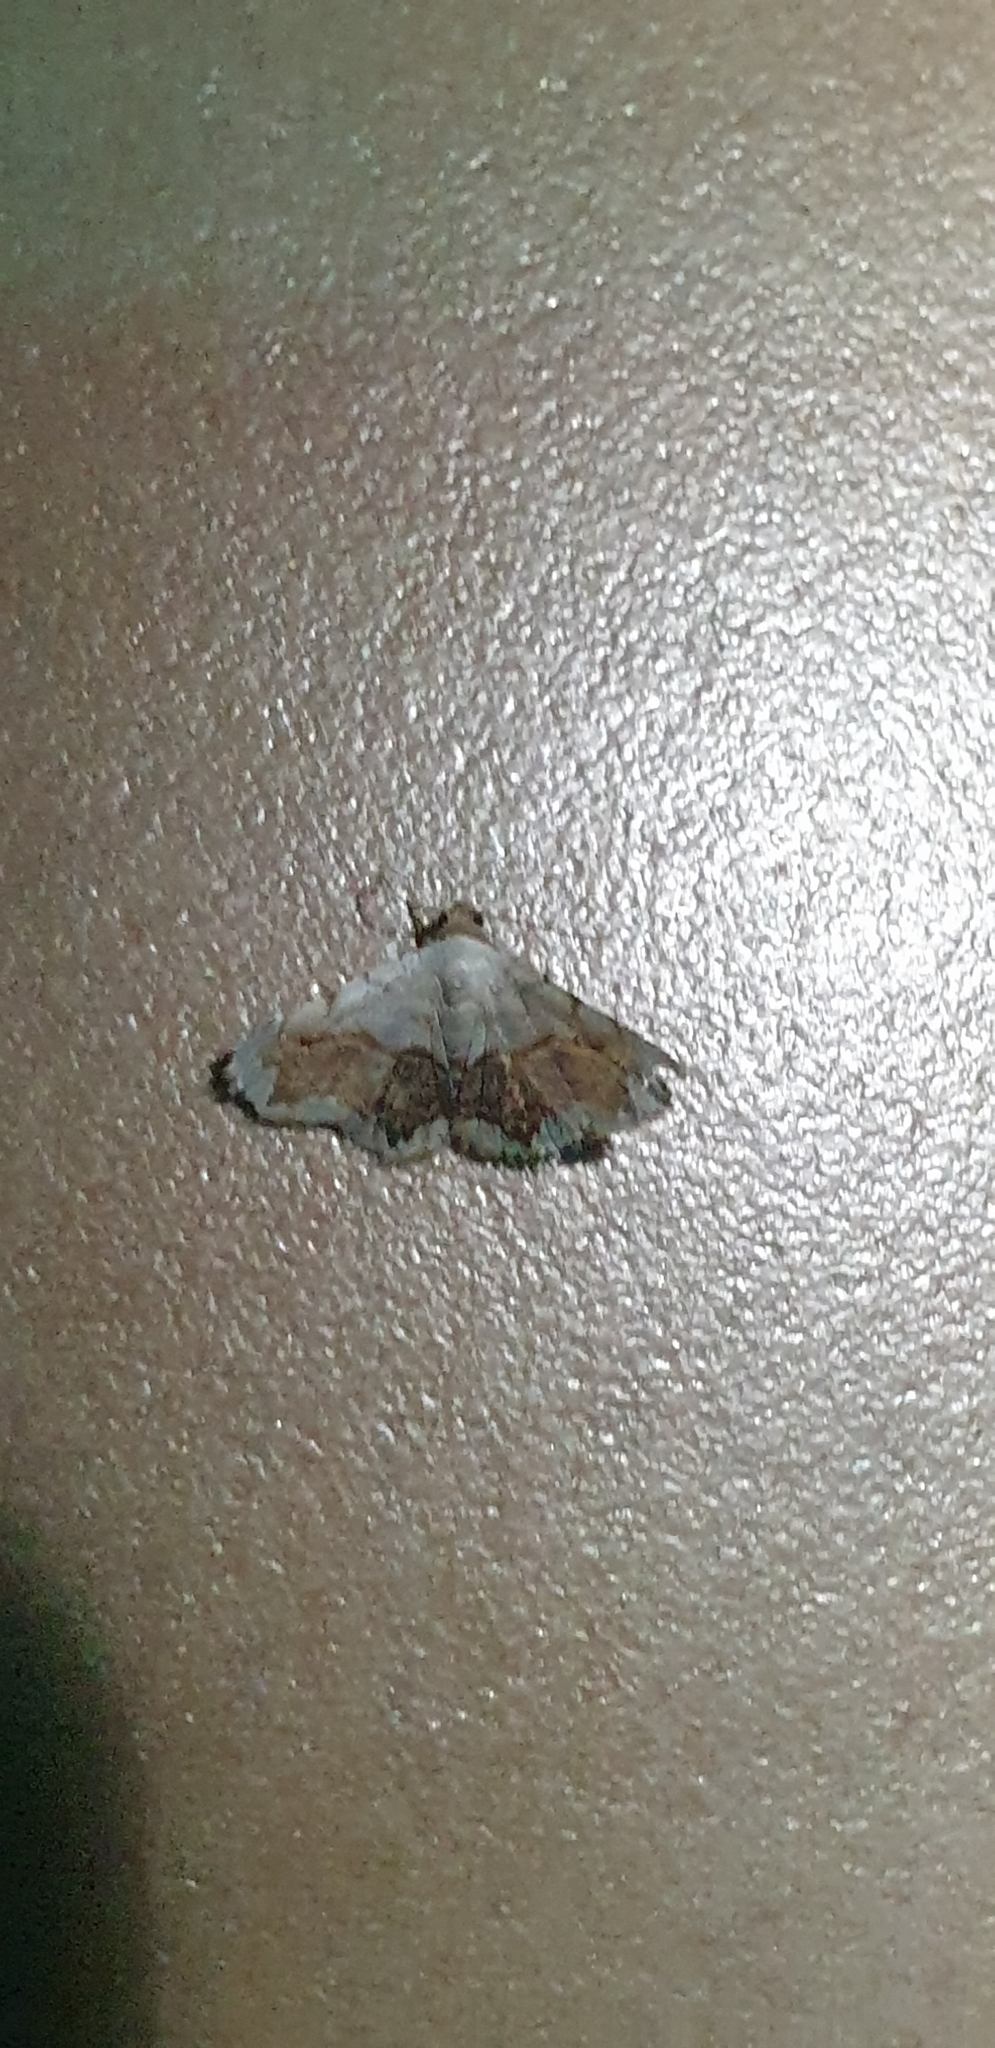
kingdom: Animalia
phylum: Arthropoda
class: Insecta
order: Lepidoptera
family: Noctuidae
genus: Eublemma
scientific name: Eublemma
